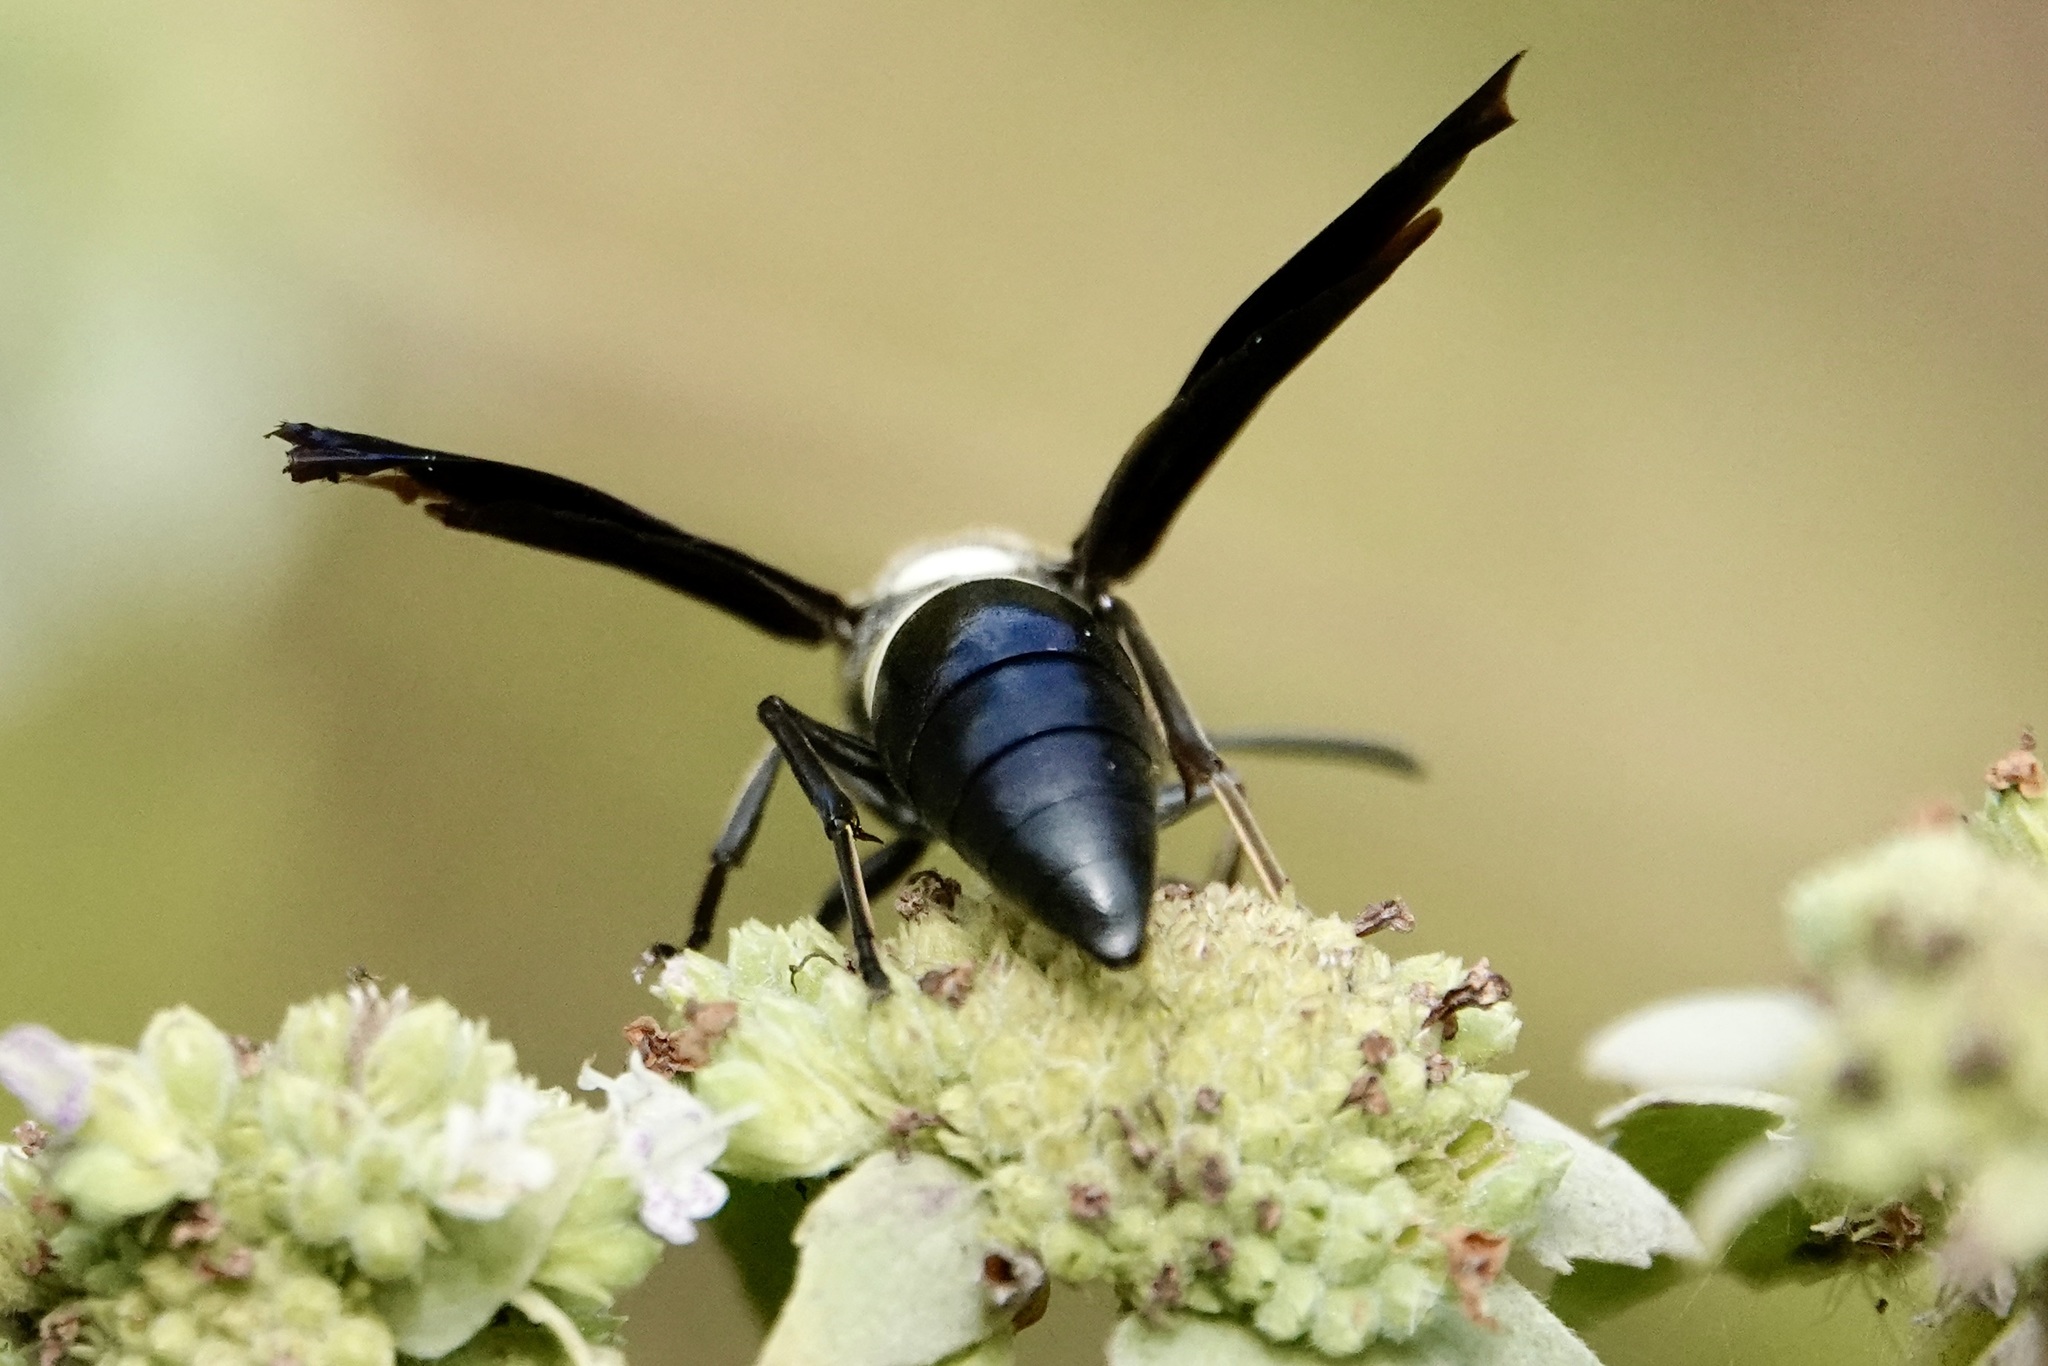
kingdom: Animalia
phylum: Arthropoda
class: Insecta
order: Hymenoptera
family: Eumenidae
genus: Monobia
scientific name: Monobia quadridens
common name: Four-toothed mason wasp
